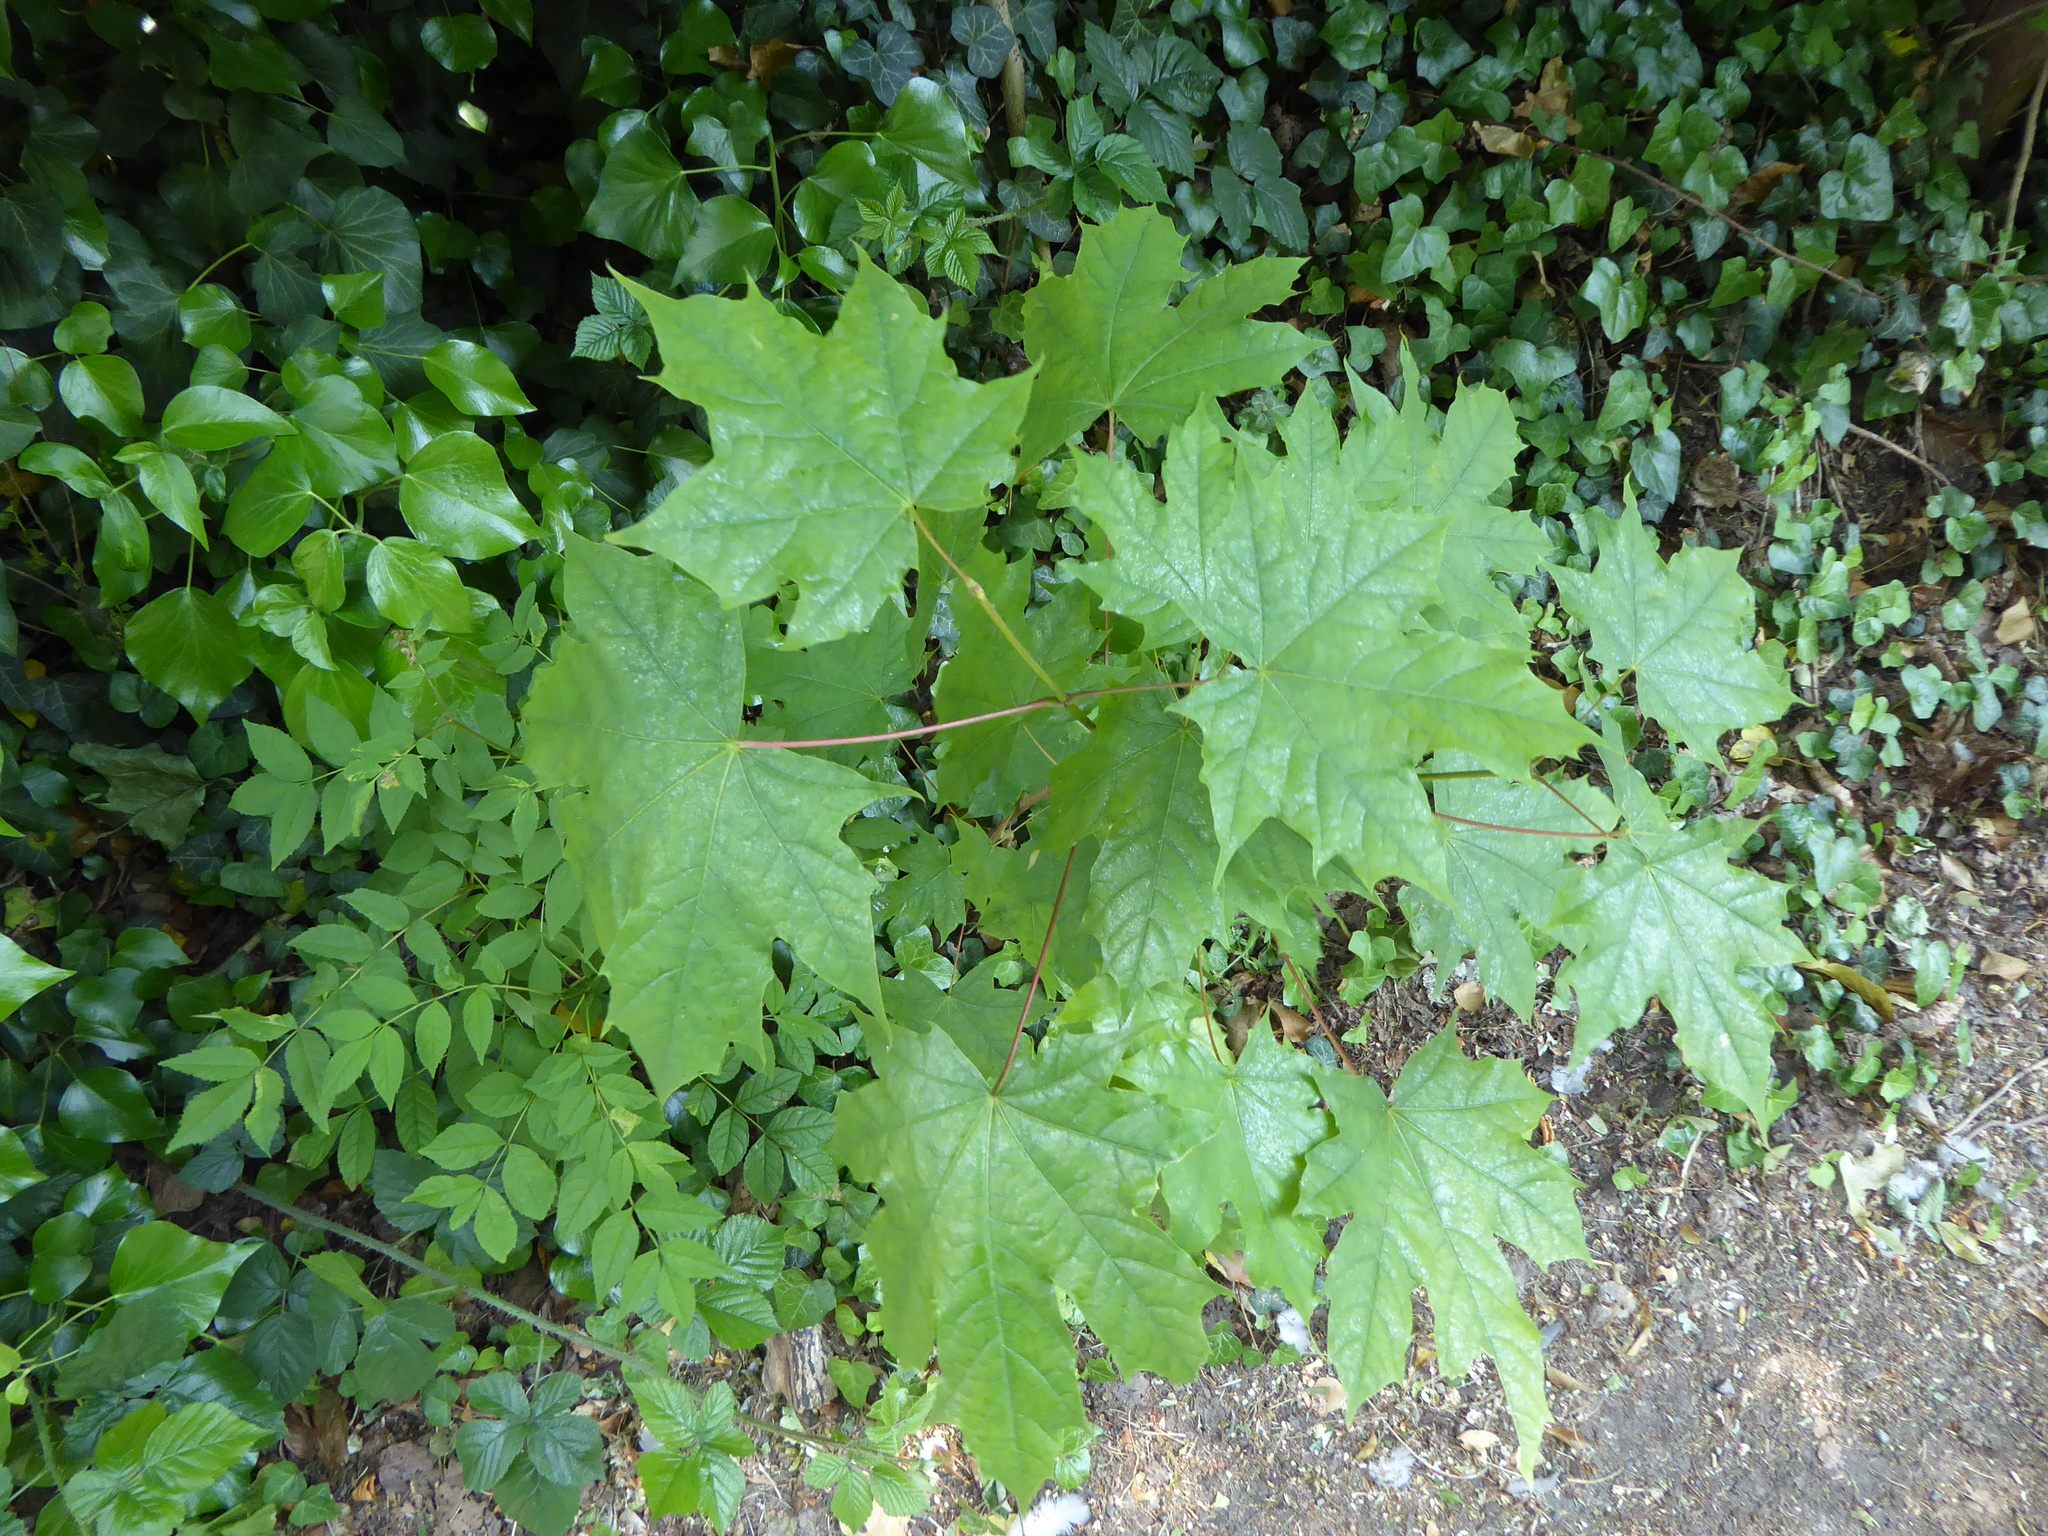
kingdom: Plantae
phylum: Tracheophyta
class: Magnoliopsida
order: Sapindales
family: Sapindaceae
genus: Acer
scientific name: Acer platanoides
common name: Norway maple
